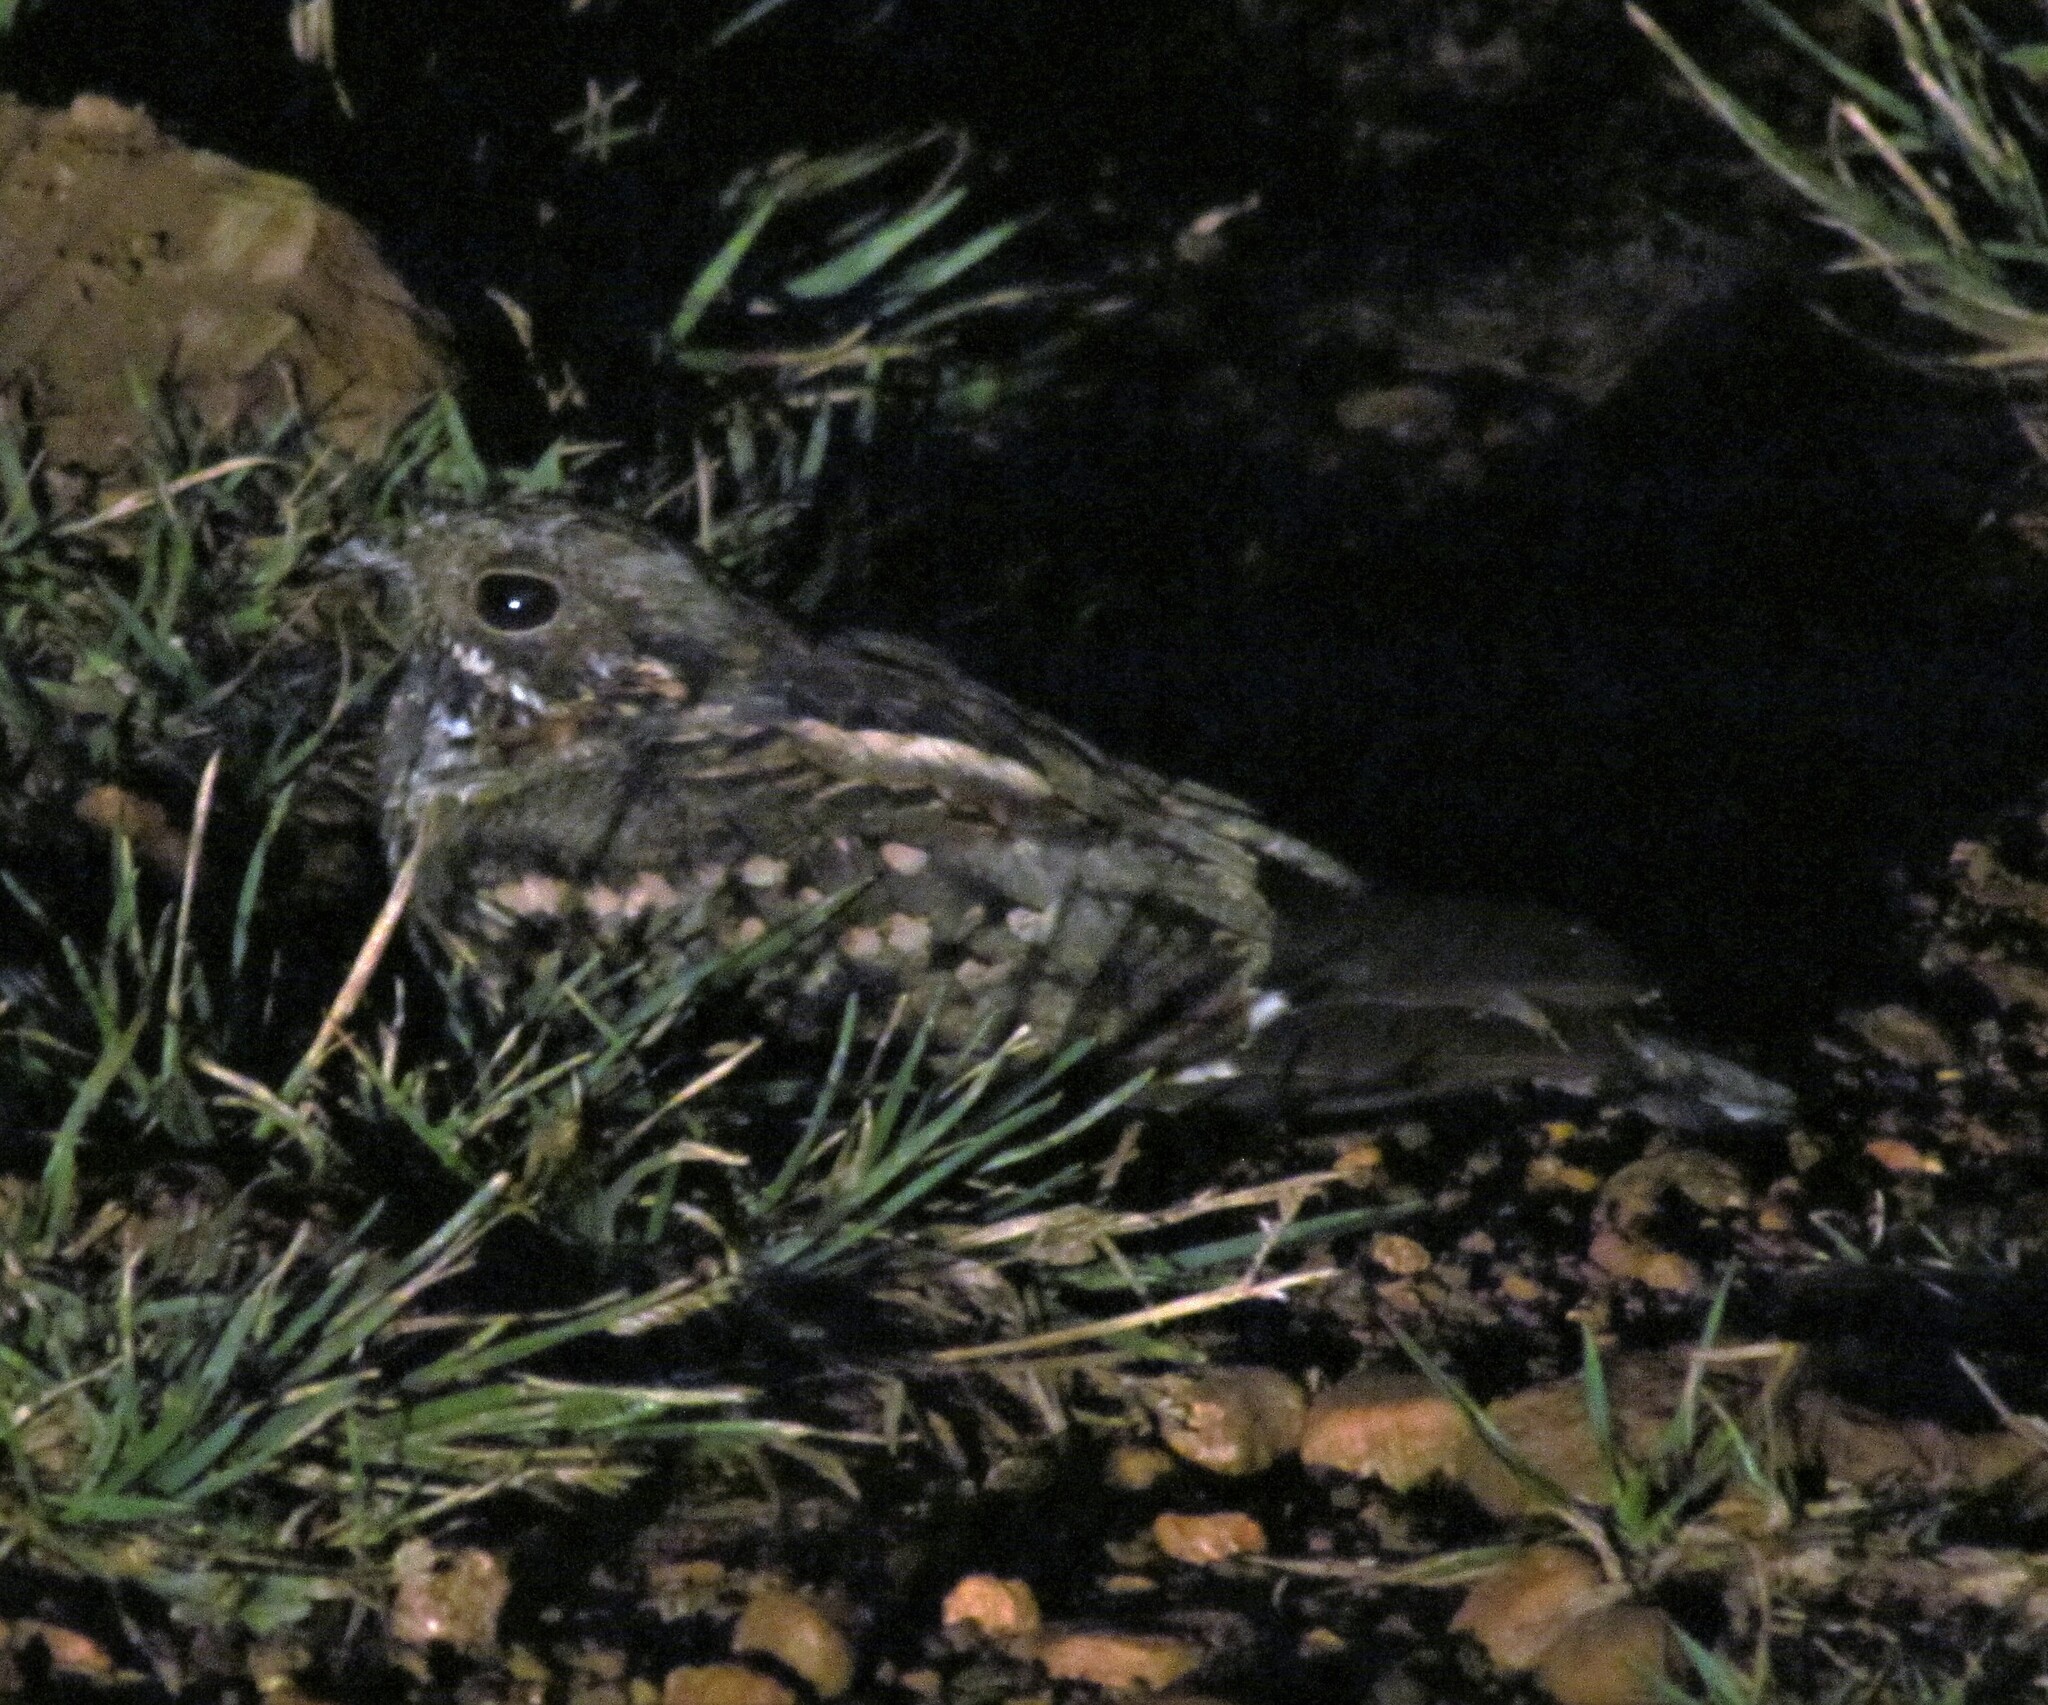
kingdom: Animalia
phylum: Chordata
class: Aves
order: Caprimulgiformes
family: Caprimulgidae
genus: Setopagis
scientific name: Setopagis parvula
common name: Little nightjar
